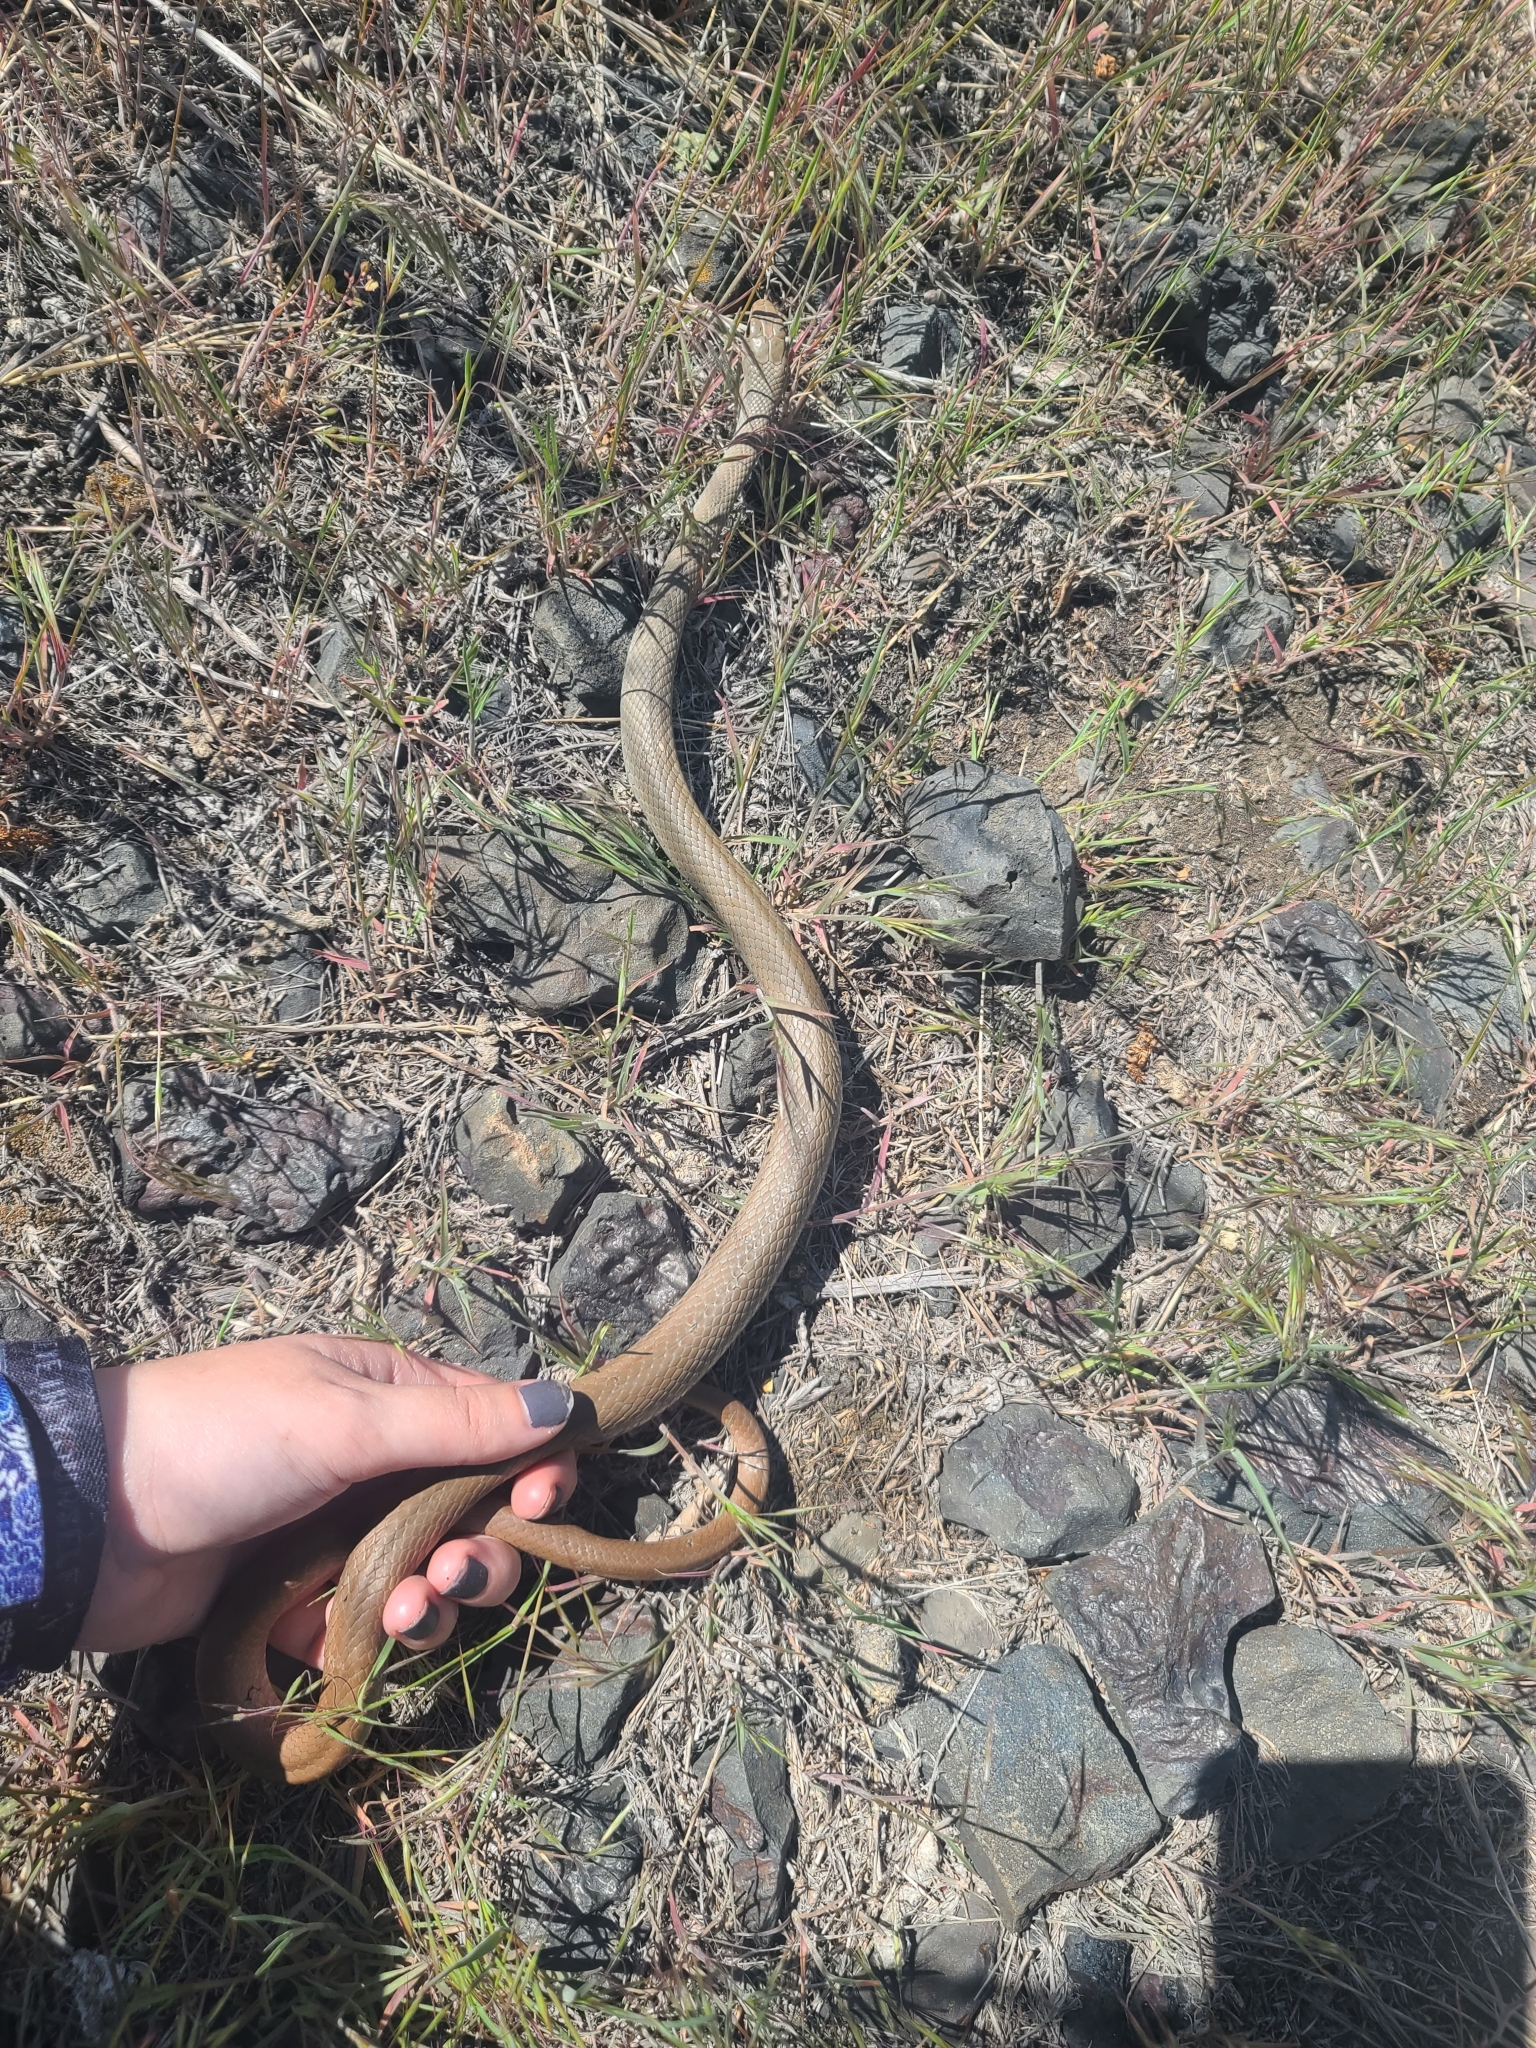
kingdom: Animalia
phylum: Chordata
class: Squamata
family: Colubridae
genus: Coluber
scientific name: Coluber constrictor
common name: Eastern racer
